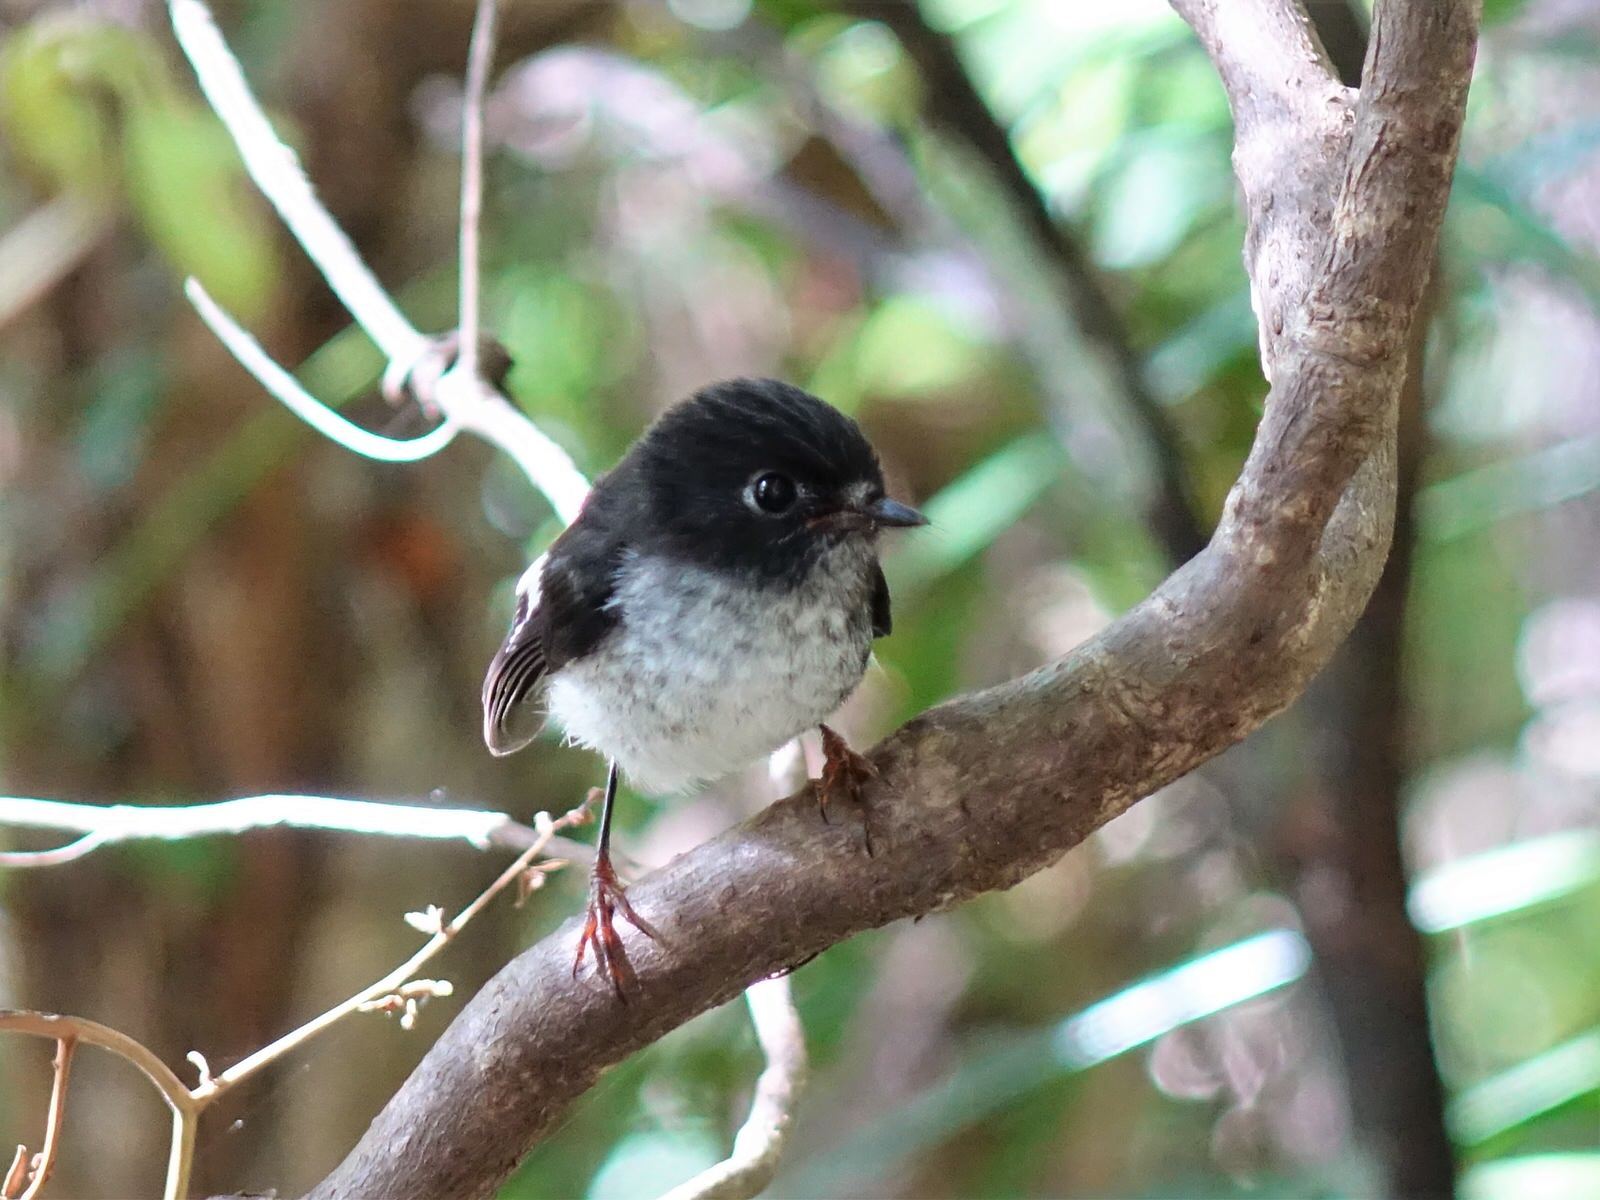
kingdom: Animalia
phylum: Chordata
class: Aves
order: Passeriformes
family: Petroicidae
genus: Petroica
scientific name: Petroica macrocephala
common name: Tomtit
